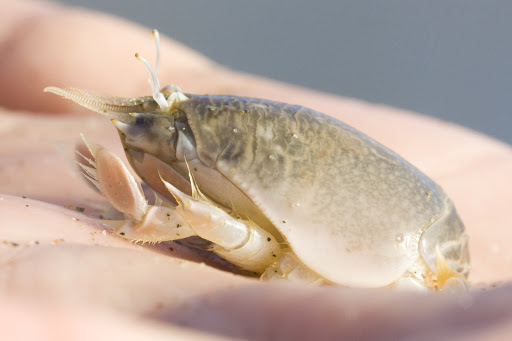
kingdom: Animalia
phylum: Arthropoda
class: Malacostraca
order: Decapoda
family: Hippidae
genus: Emerita
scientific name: Emerita analoga
